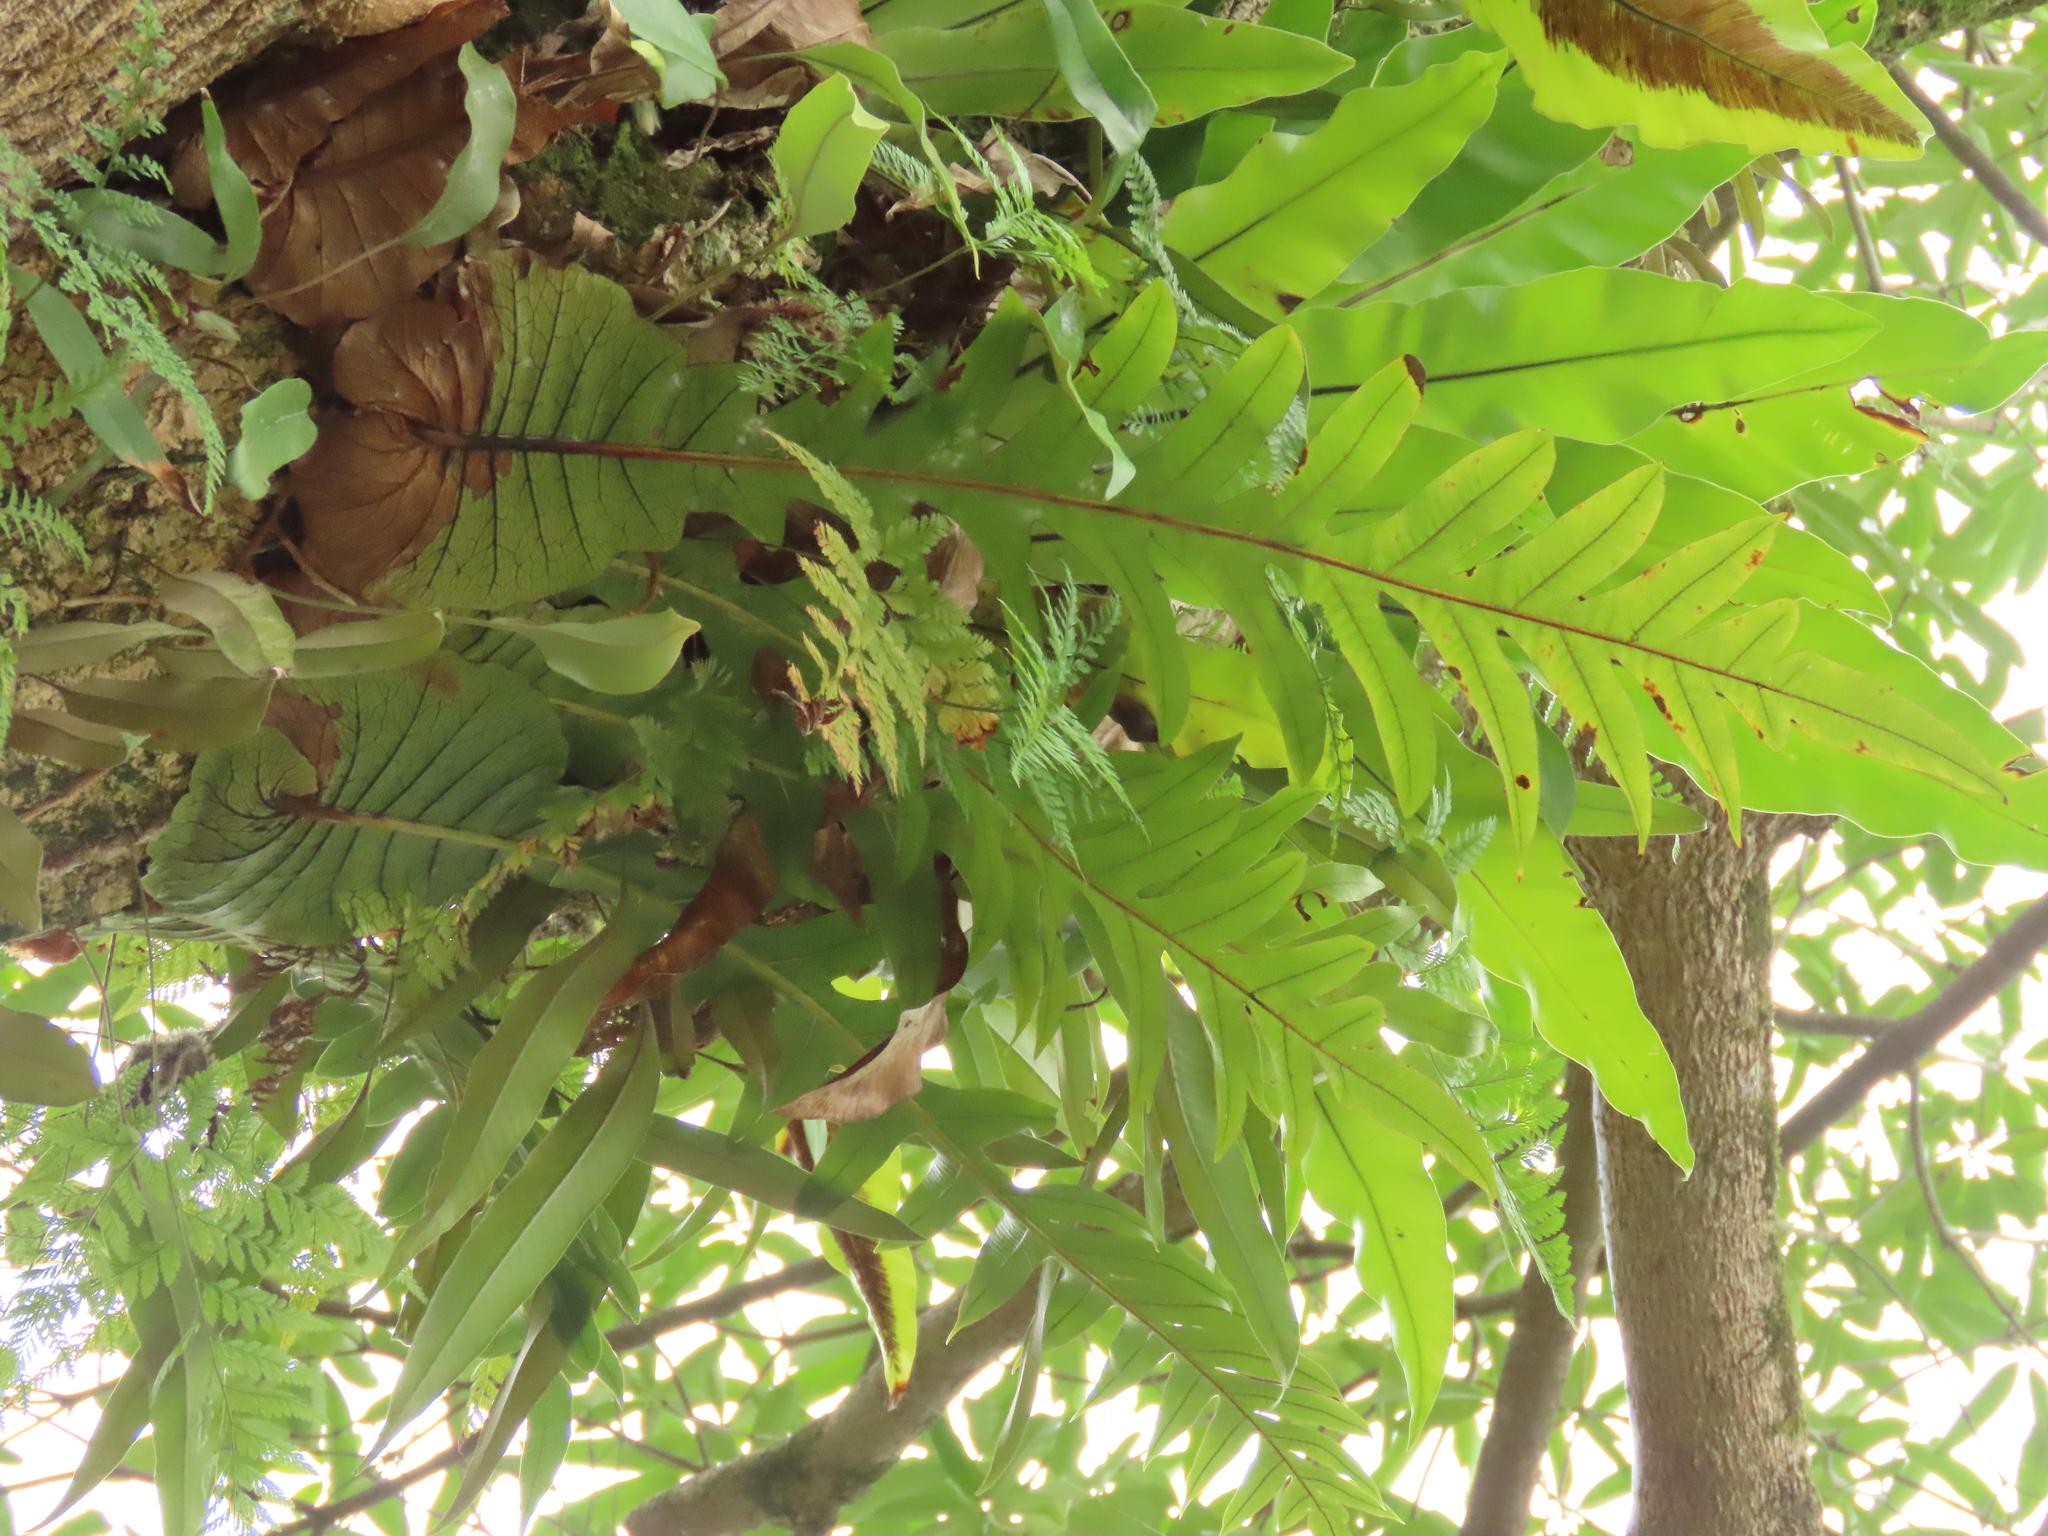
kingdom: Plantae
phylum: Tracheophyta
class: Polypodiopsida
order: Polypodiales
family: Polypodiaceae
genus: Drynaria
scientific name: Drynaria coronans
